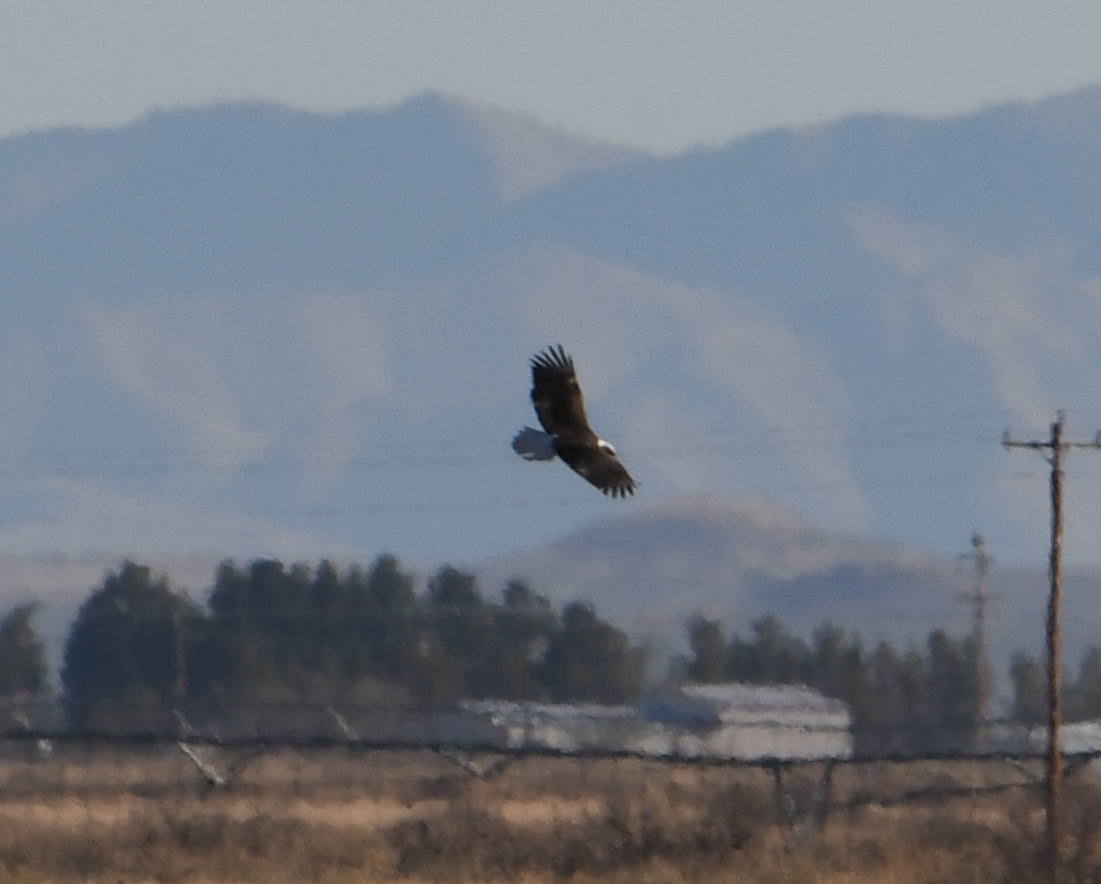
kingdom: Animalia
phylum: Chordata
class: Aves
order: Accipitriformes
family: Accipitridae
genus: Haliaeetus
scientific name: Haliaeetus leucocephalus
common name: Bald eagle
